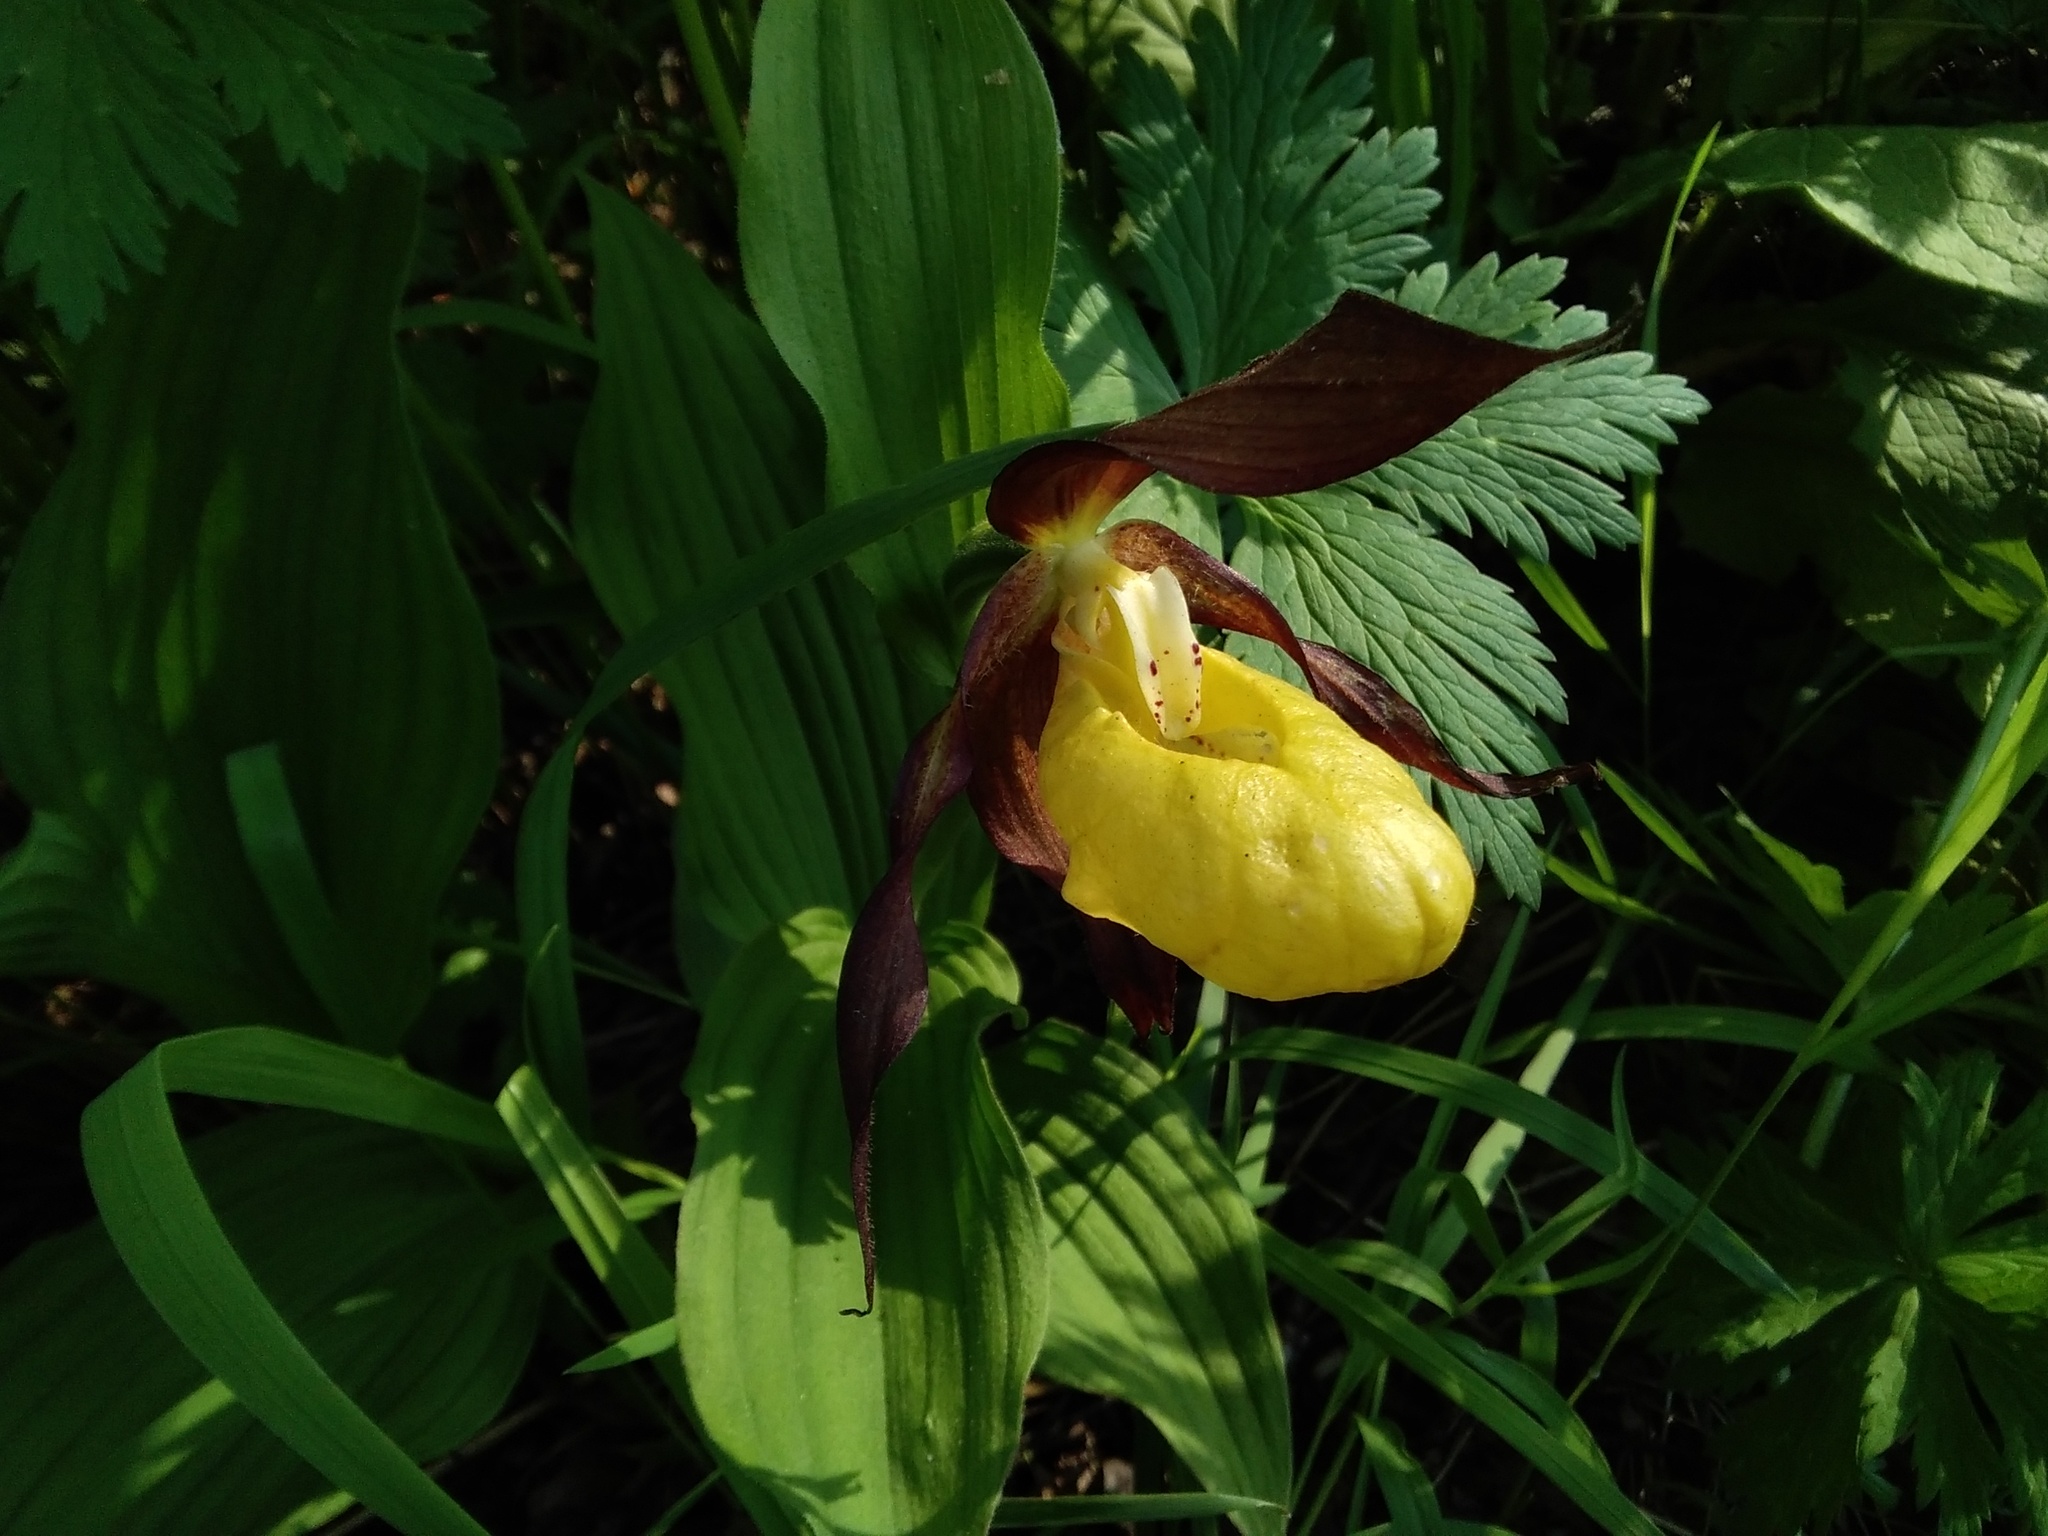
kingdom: Plantae
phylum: Tracheophyta
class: Liliopsida
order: Asparagales
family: Orchidaceae
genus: Cypripedium
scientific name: Cypripedium calceolus
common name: Lady's-slipper
